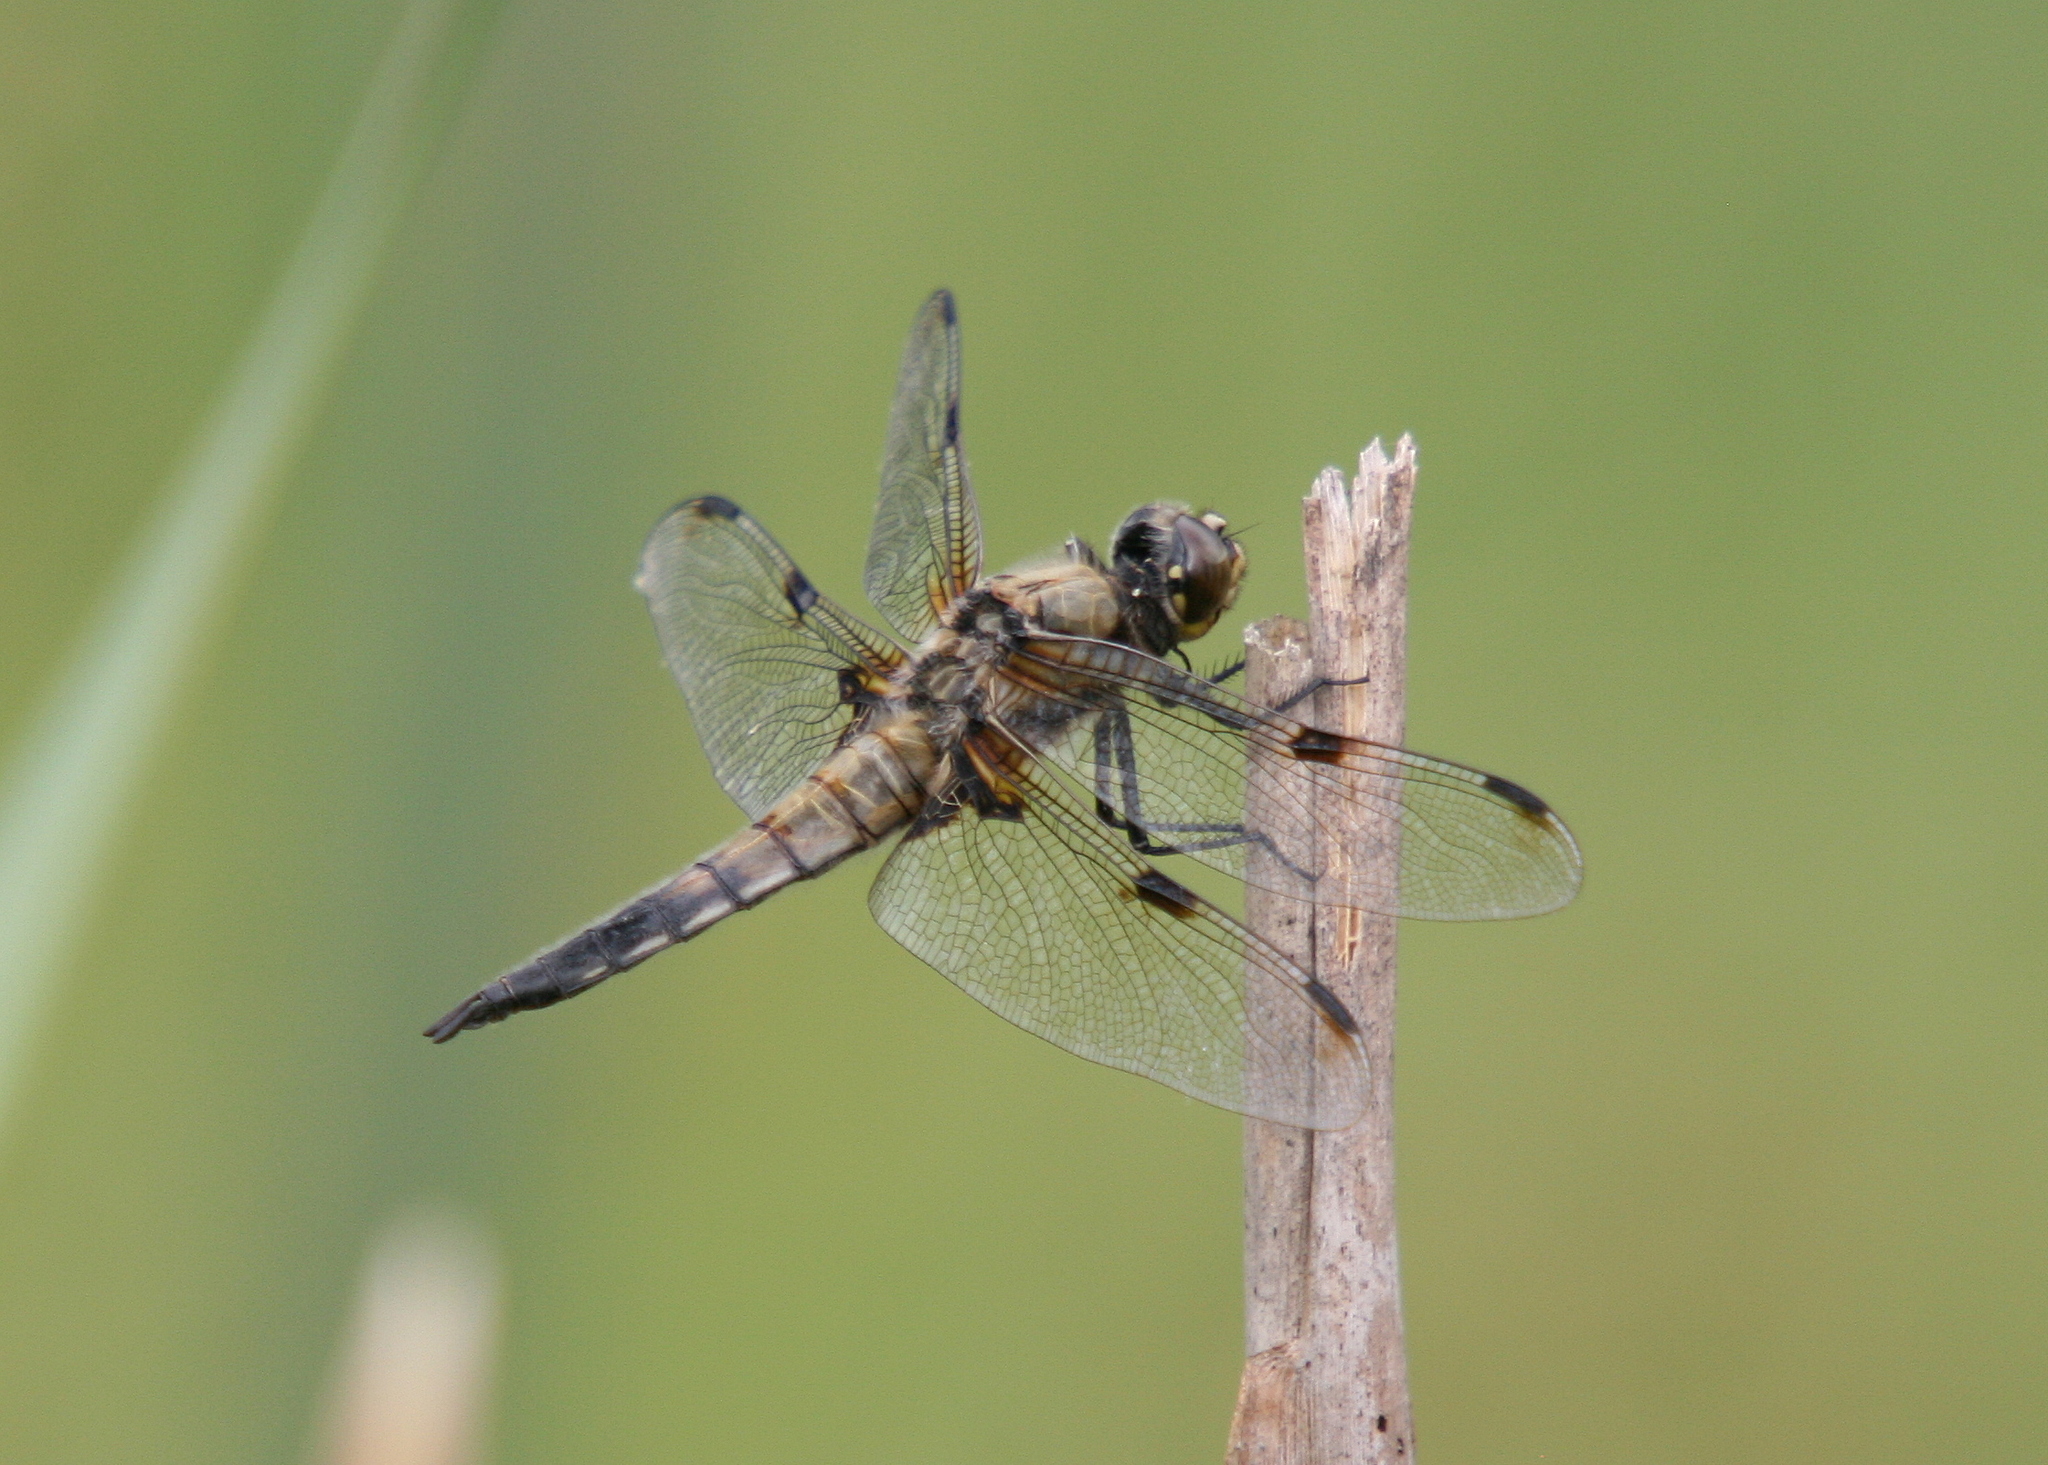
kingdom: Animalia
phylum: Arthropoda
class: Insecta
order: Odonata
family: Libellulidae
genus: Libellula
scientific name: Libellula quadrimaculata
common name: Four-spotted chaser
